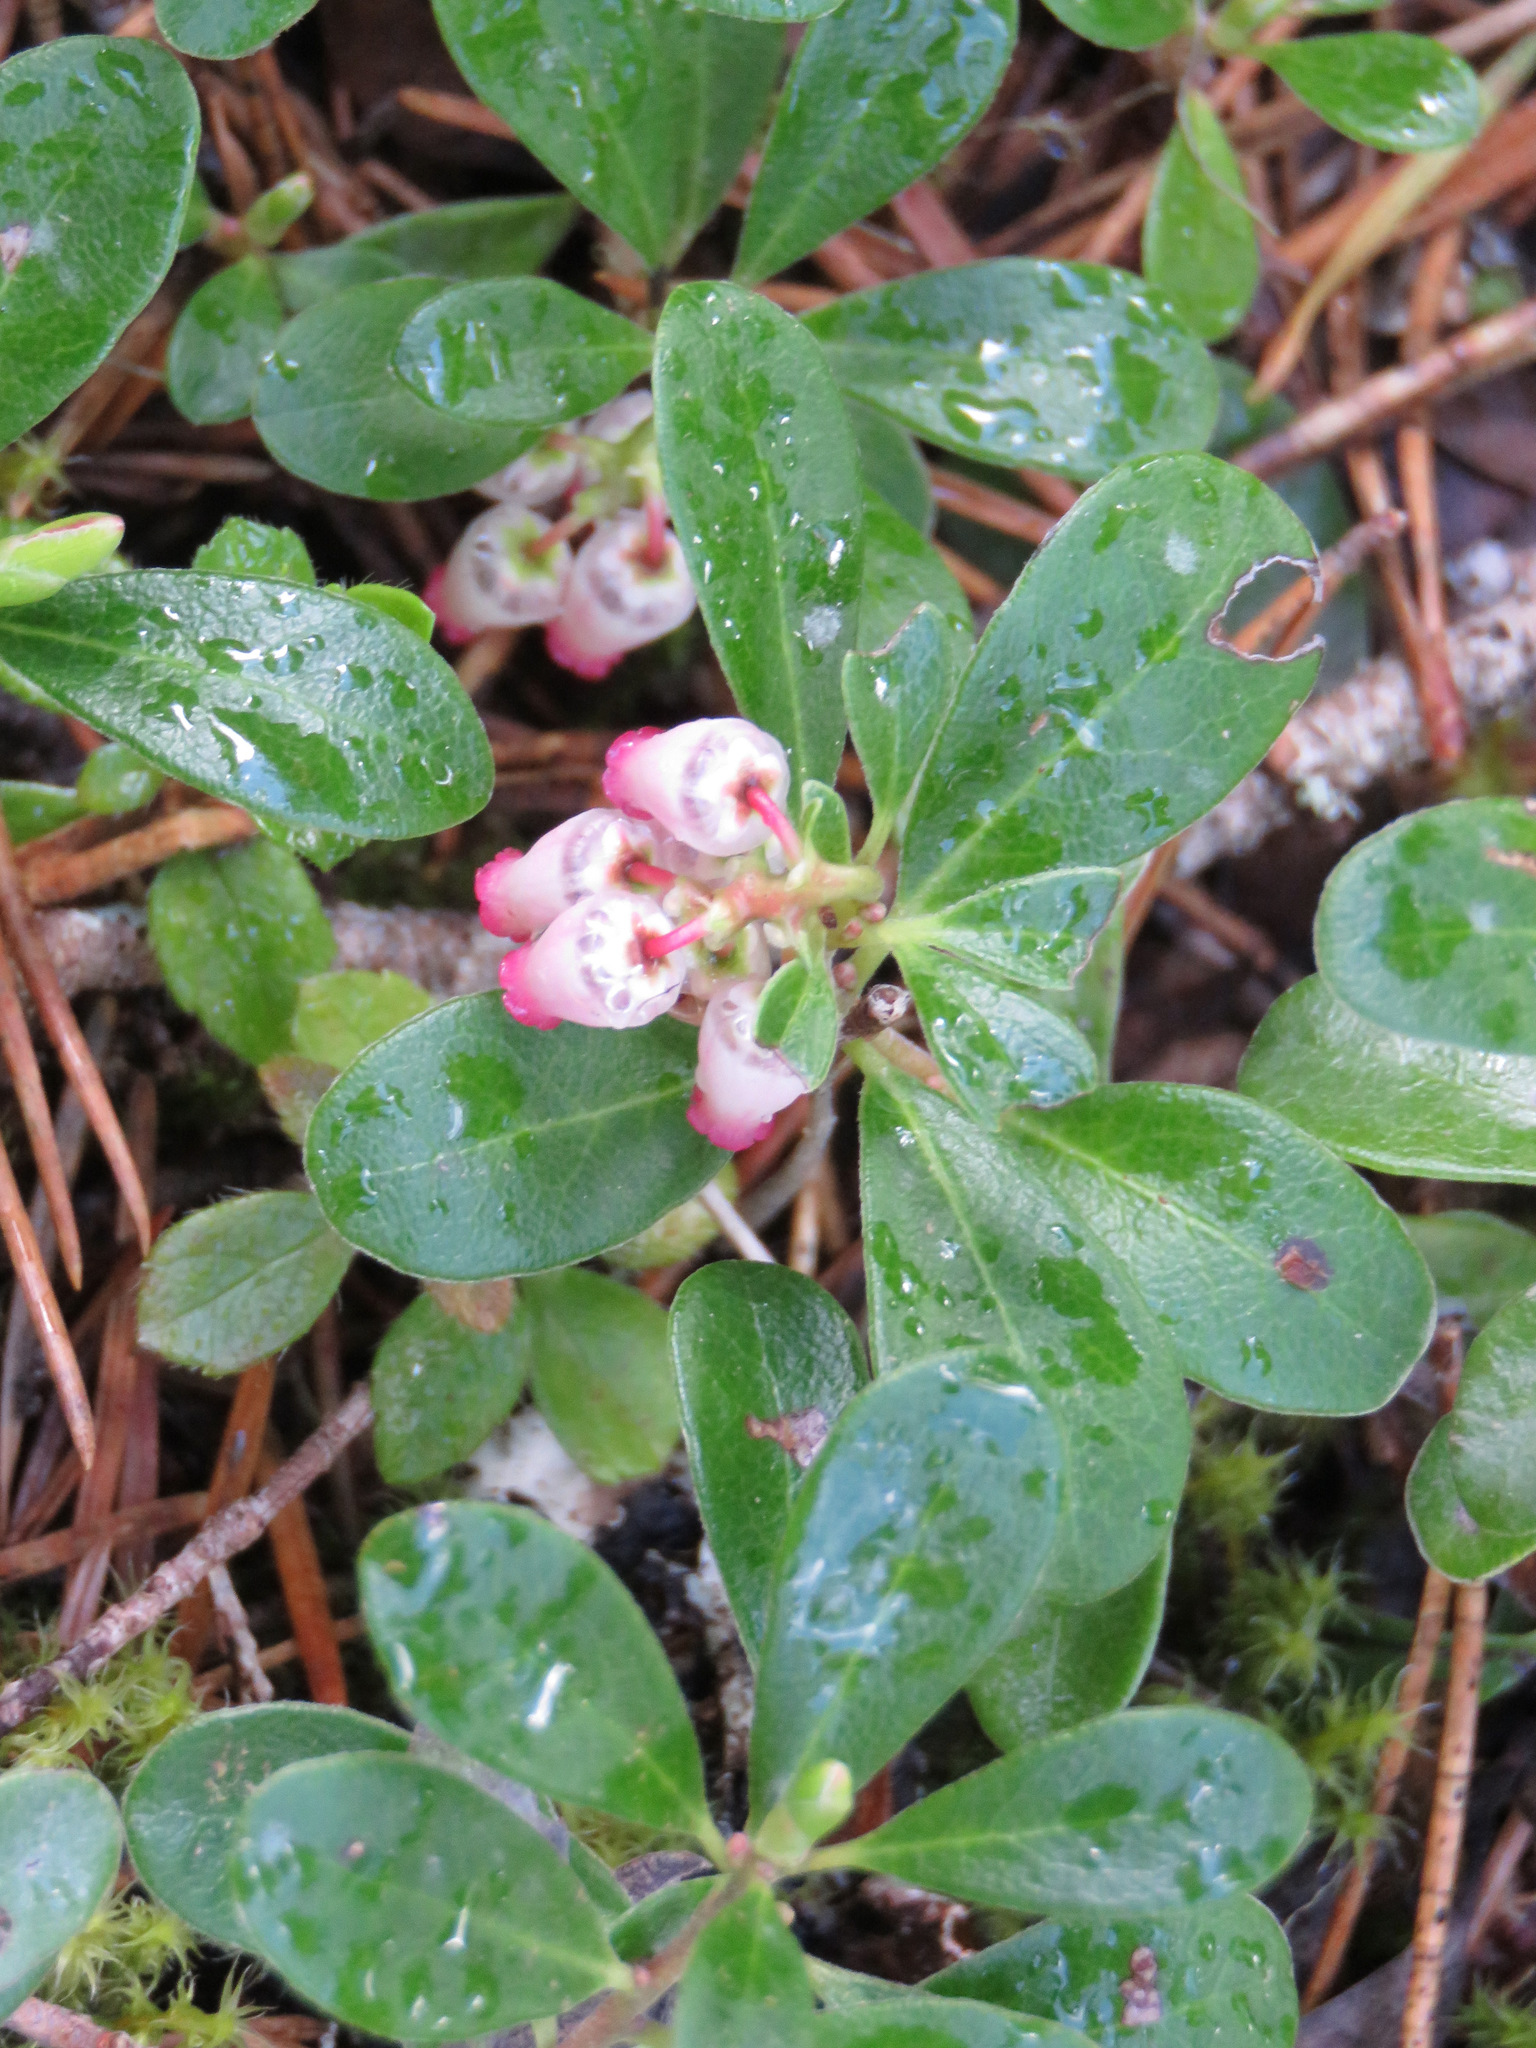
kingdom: Plantae
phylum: Tracheophyta
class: Magnoliopsida
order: Ericales
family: Ericaceae
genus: Arctostaphylos
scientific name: Arctostaphylos uva-ursi
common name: Bearberry
